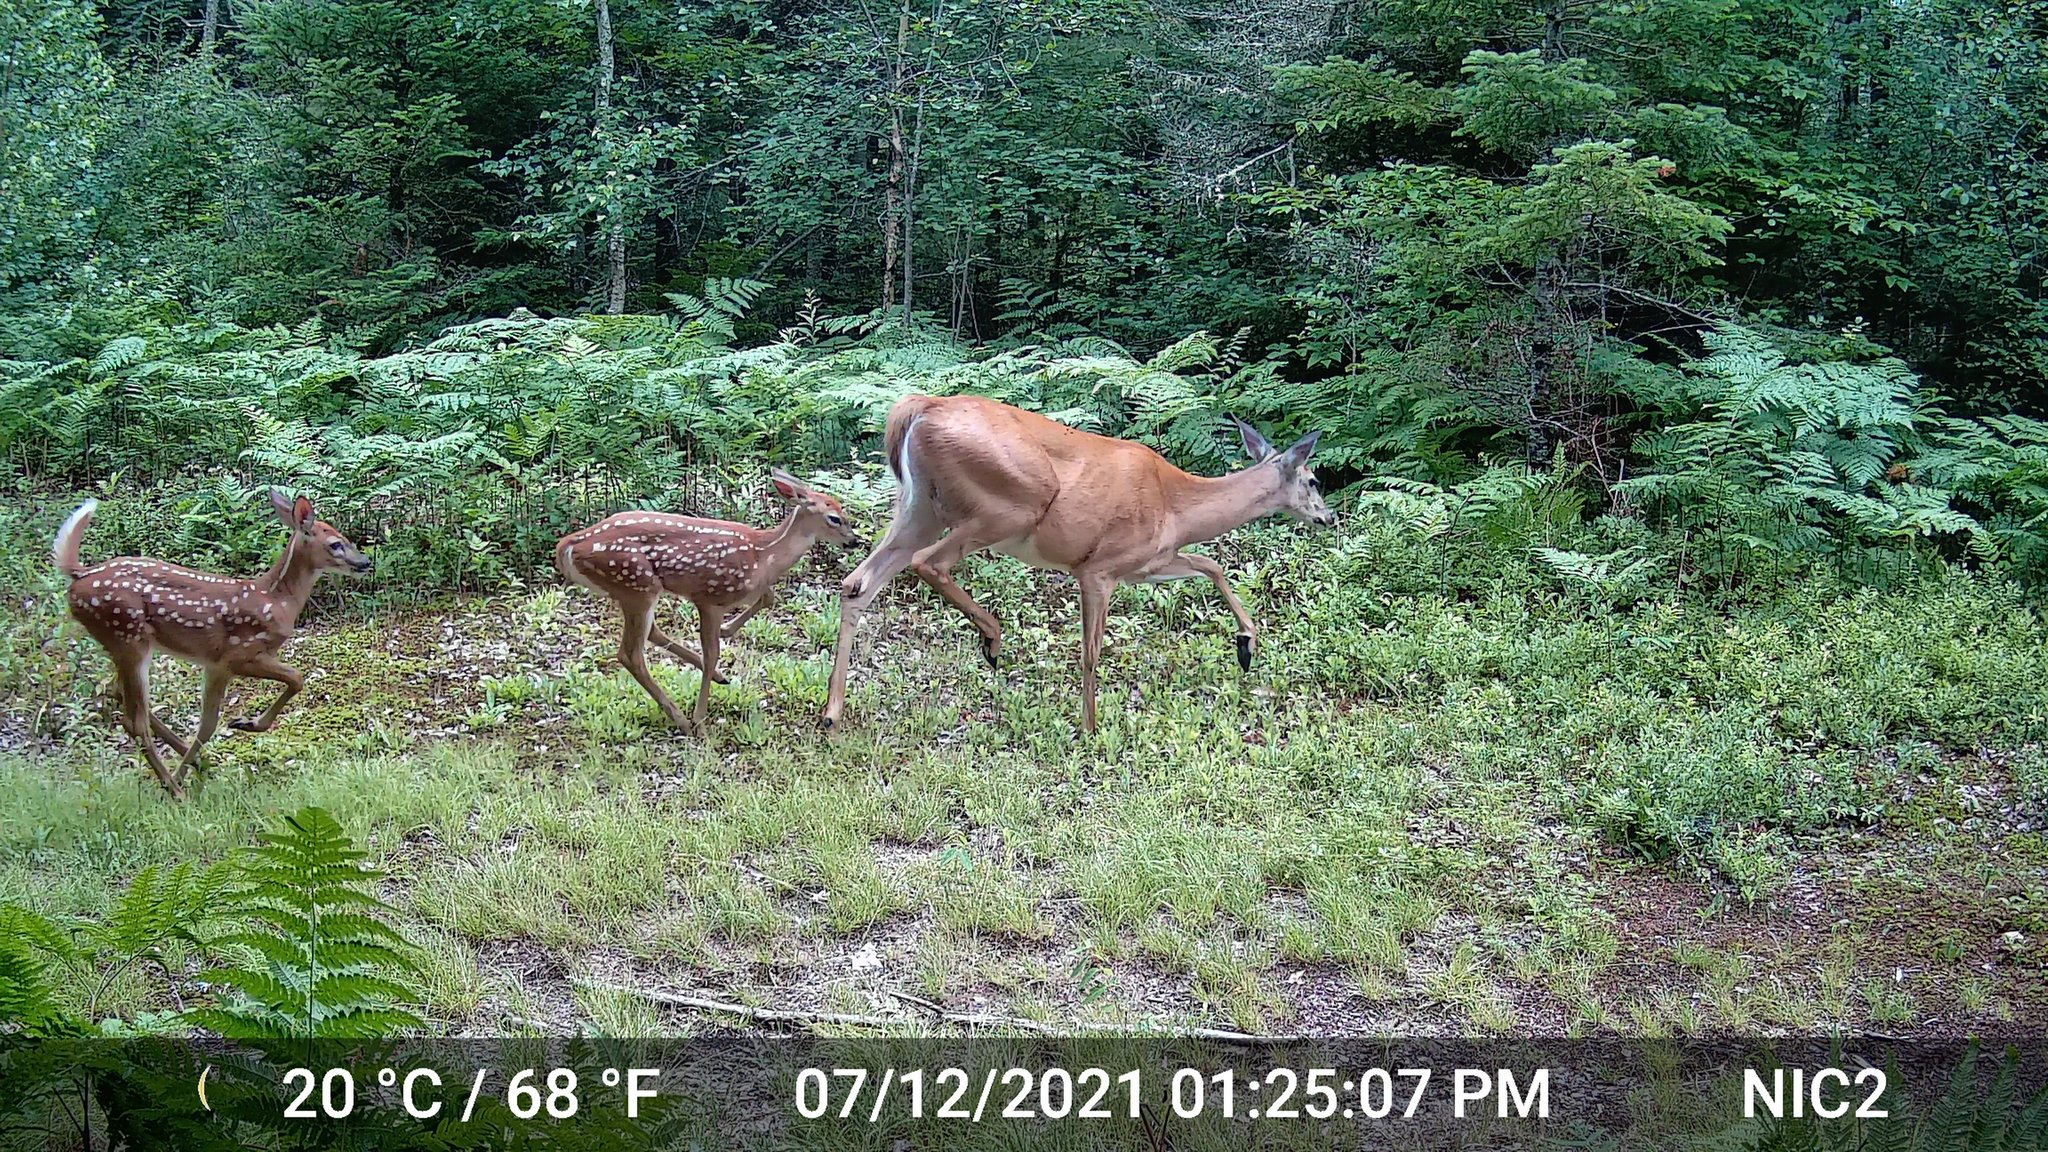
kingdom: Animalia
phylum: Chordata
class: Mammalia
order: Artiodactyla
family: Cervidae
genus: Odocoileus
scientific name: Odocoileus virginianus
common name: White-tailed deer
